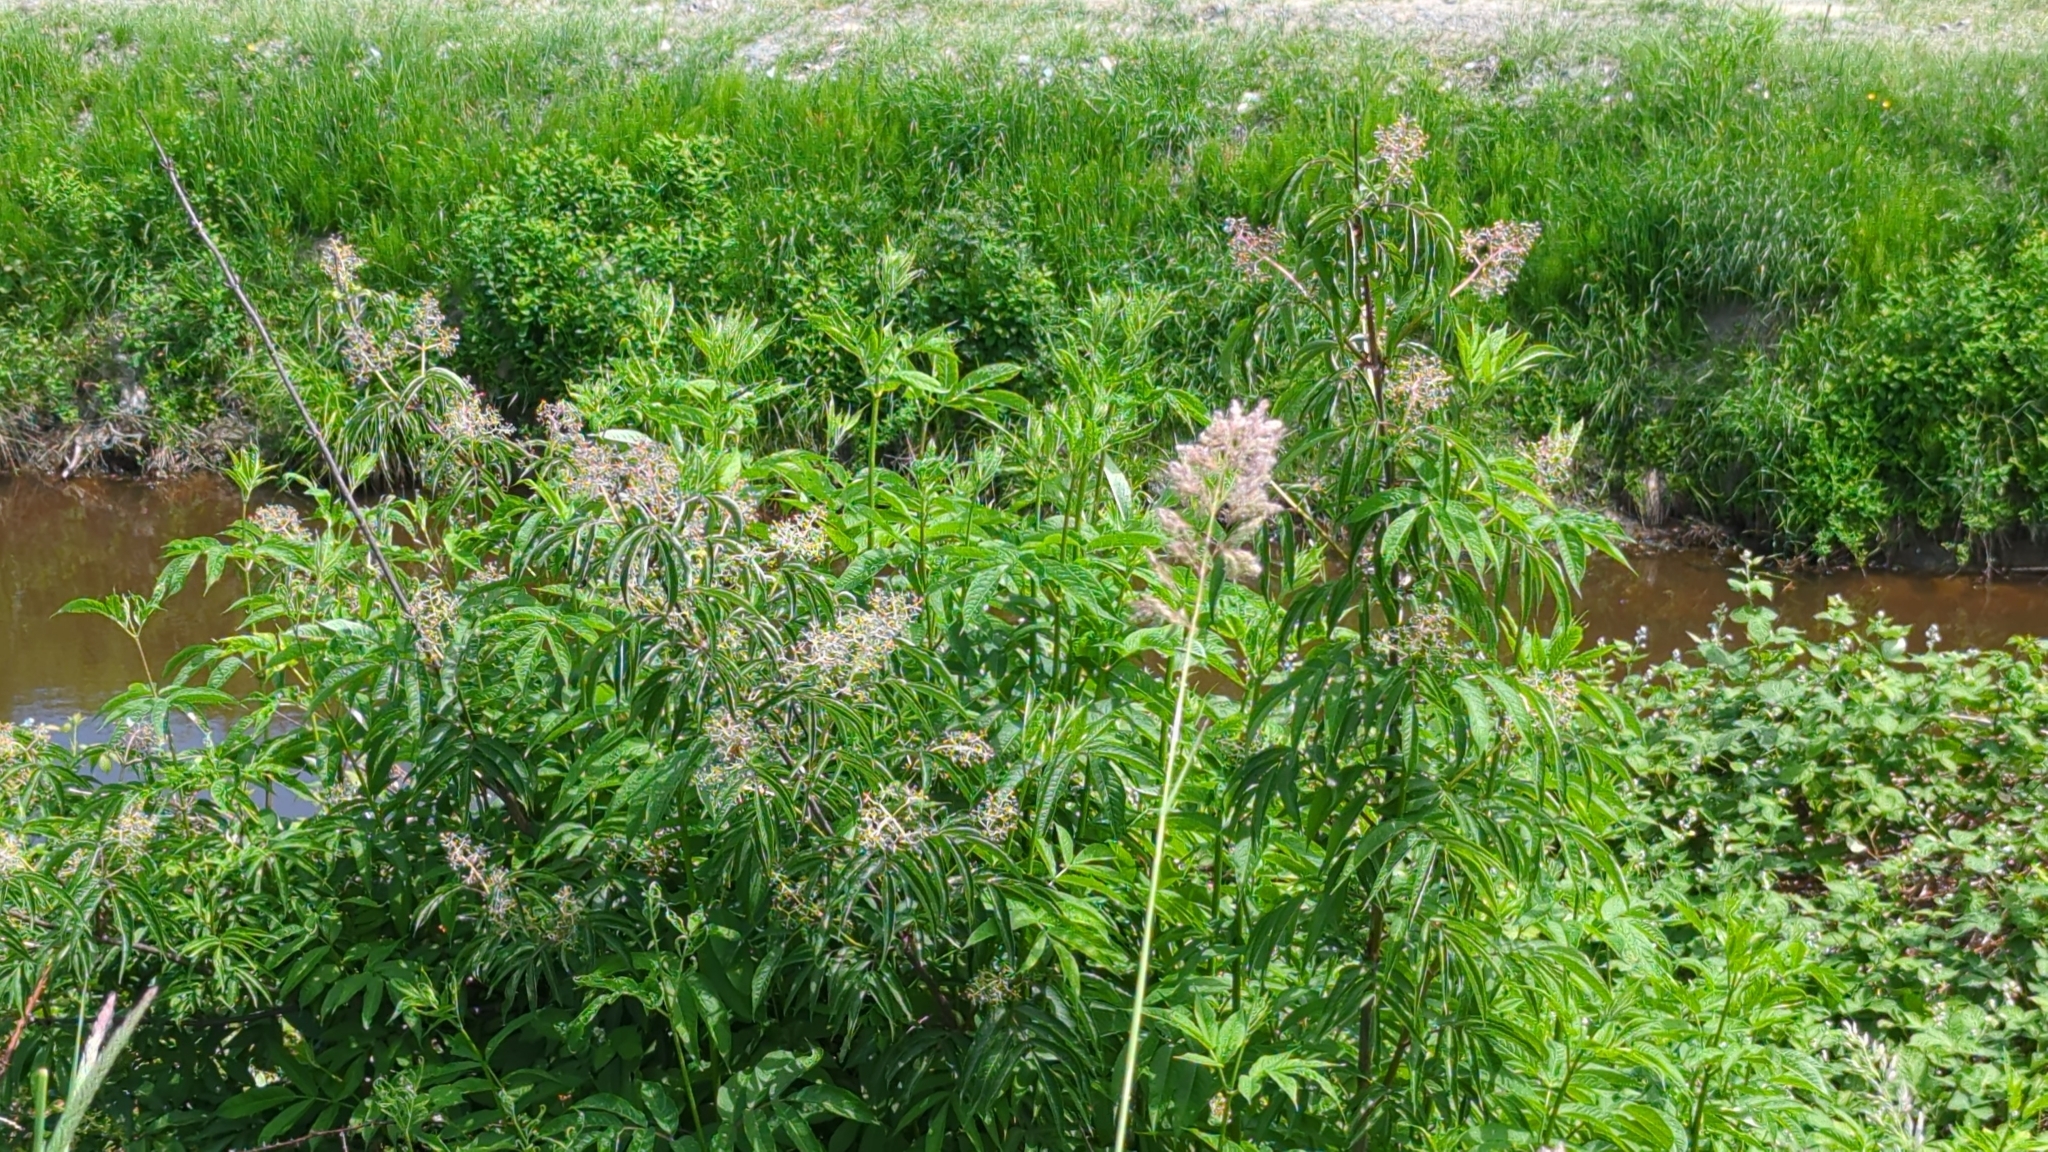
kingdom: Plantae
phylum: Tracheophyta
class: Magnoliopsida
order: Dipsacales
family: Viburnaceae
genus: Sambucus
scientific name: Sambucus racemosa
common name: Red-berried elder
